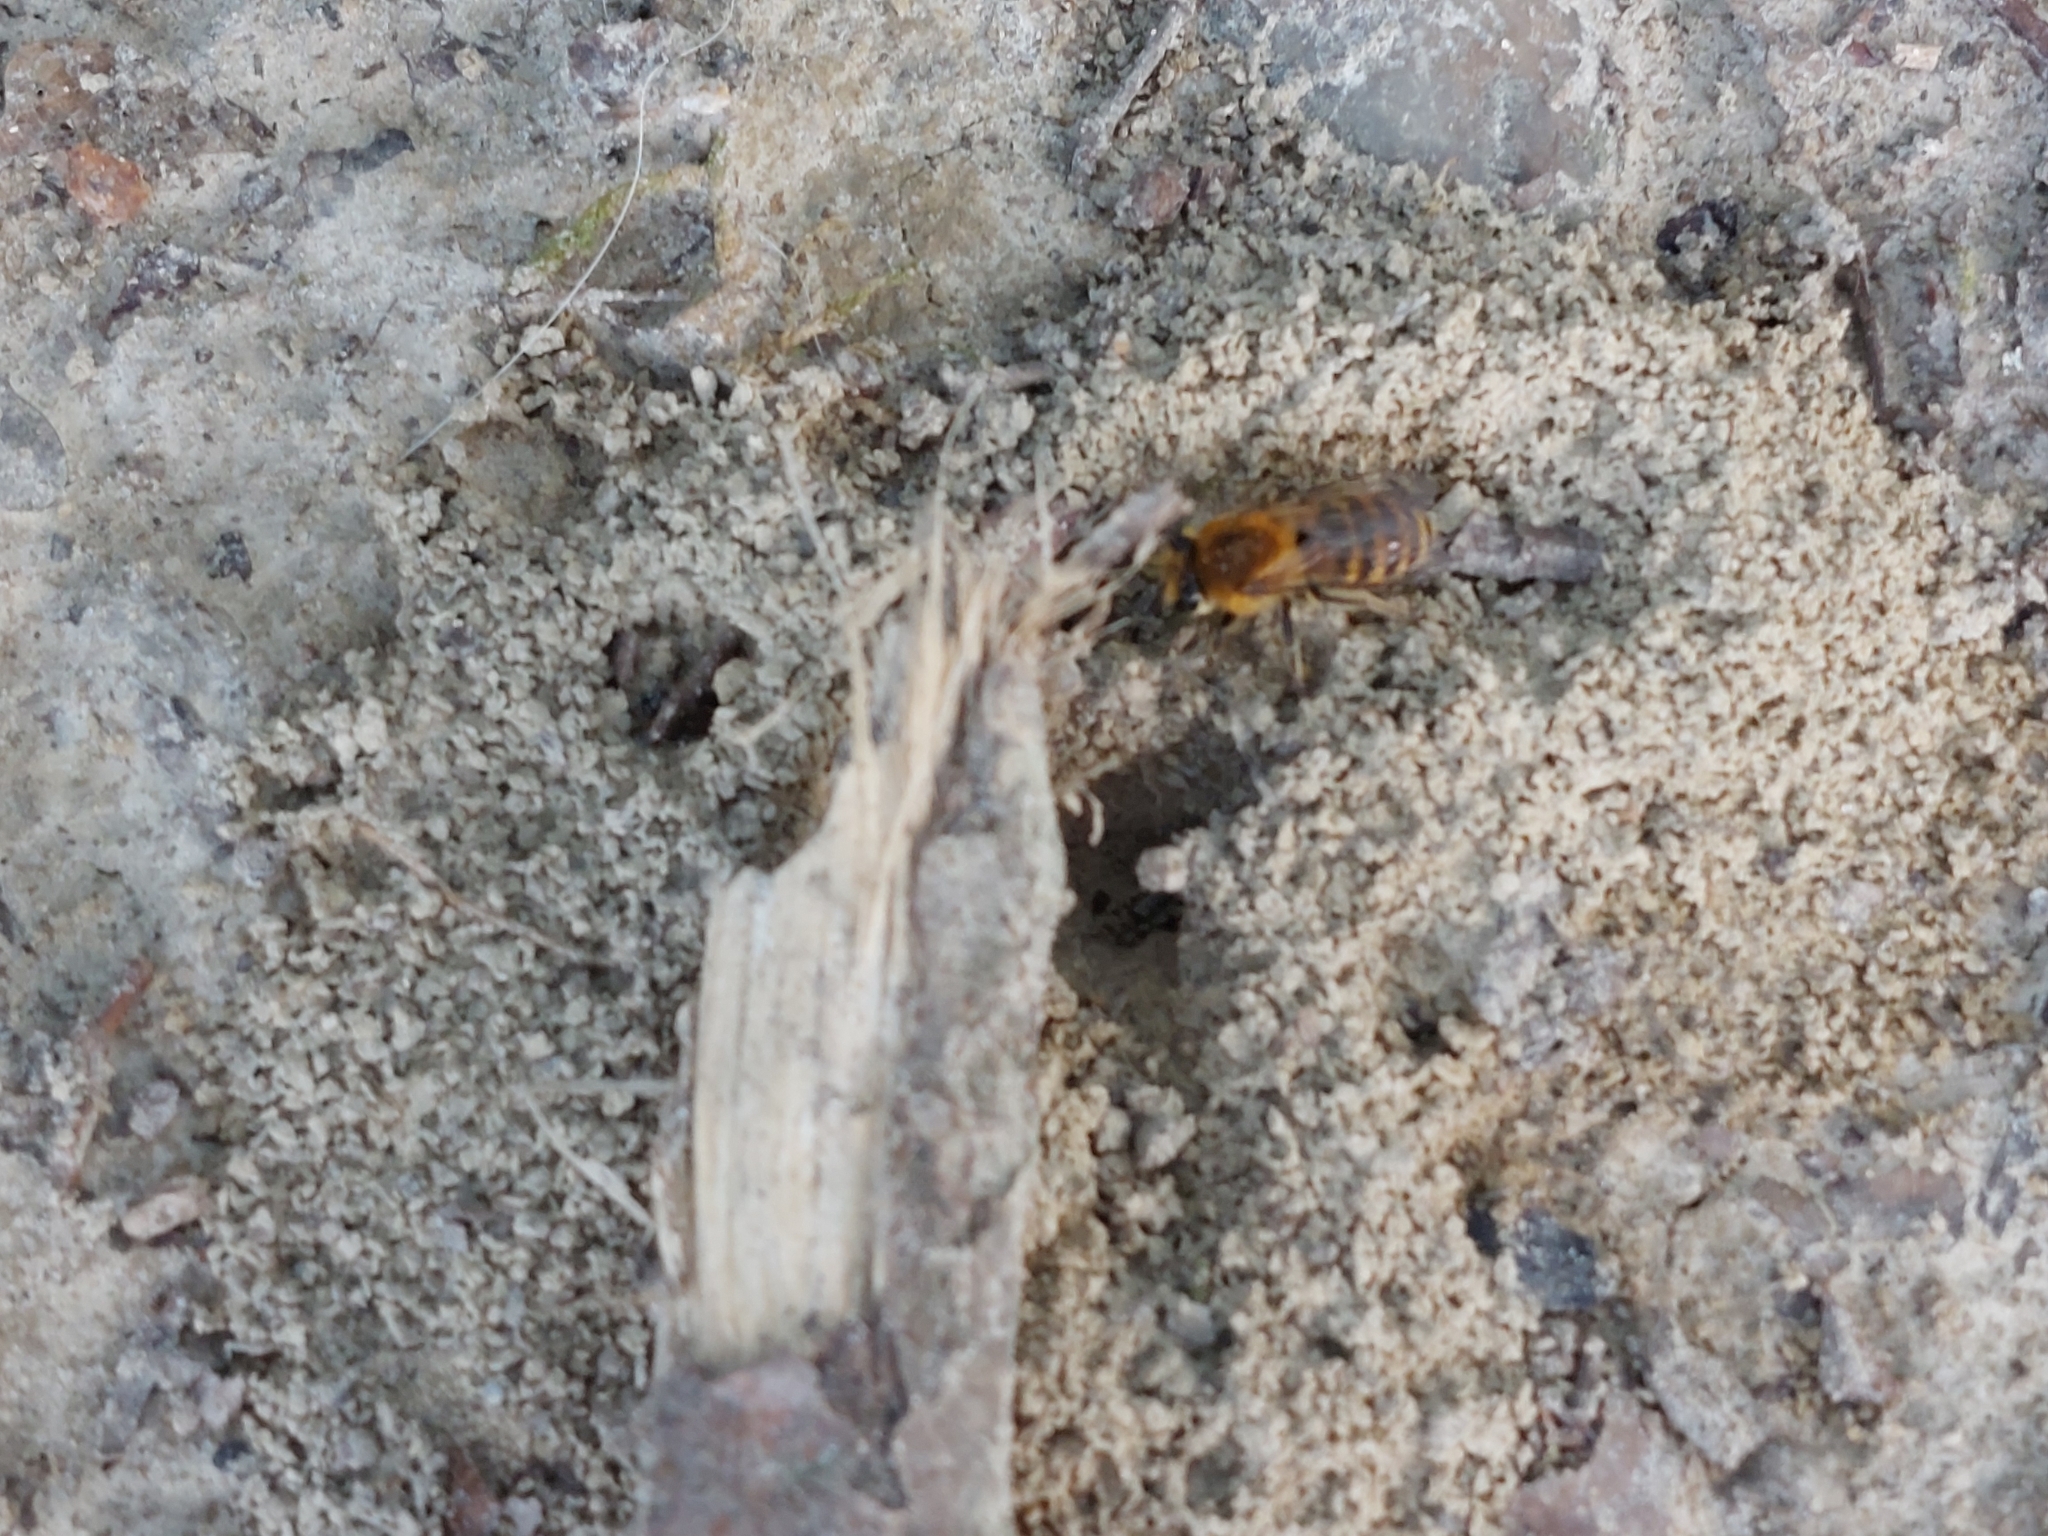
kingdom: Animalia
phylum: Arthropoda
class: Insecta
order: Hymenoptera
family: Colletidae
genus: Colletes
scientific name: Colletes
